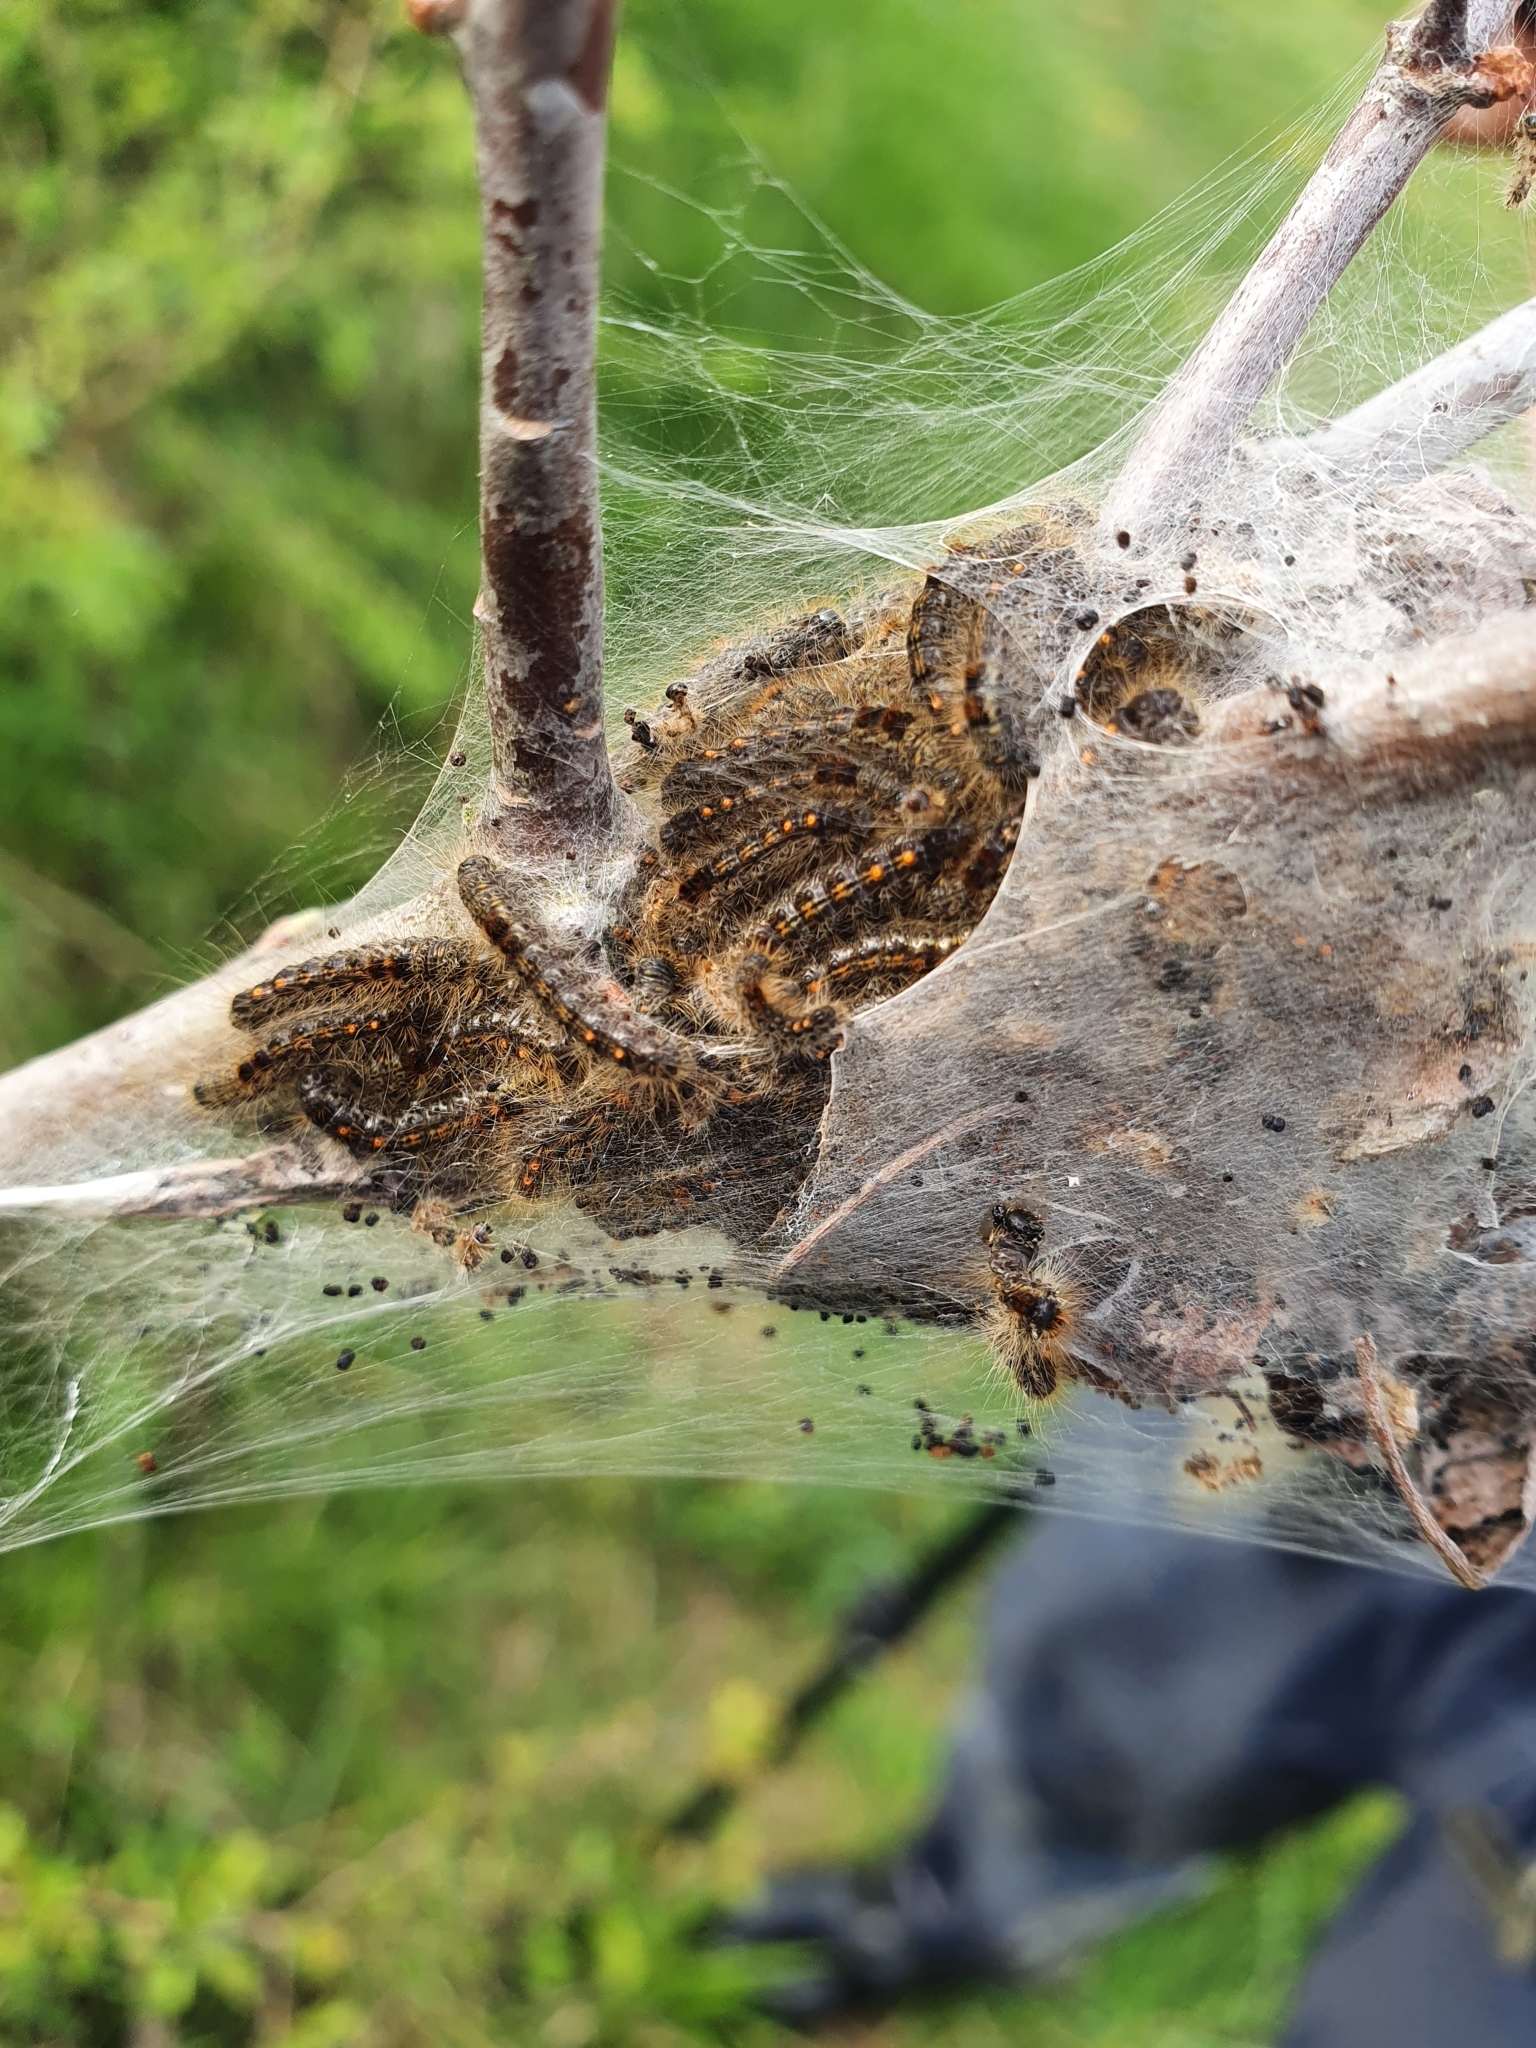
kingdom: Animalia
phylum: Arthropoda
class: Insecta
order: Lepidoptera
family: Erebidae
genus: Euproctis
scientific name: Euproctis chrysorrhoea
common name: Brown-tail
